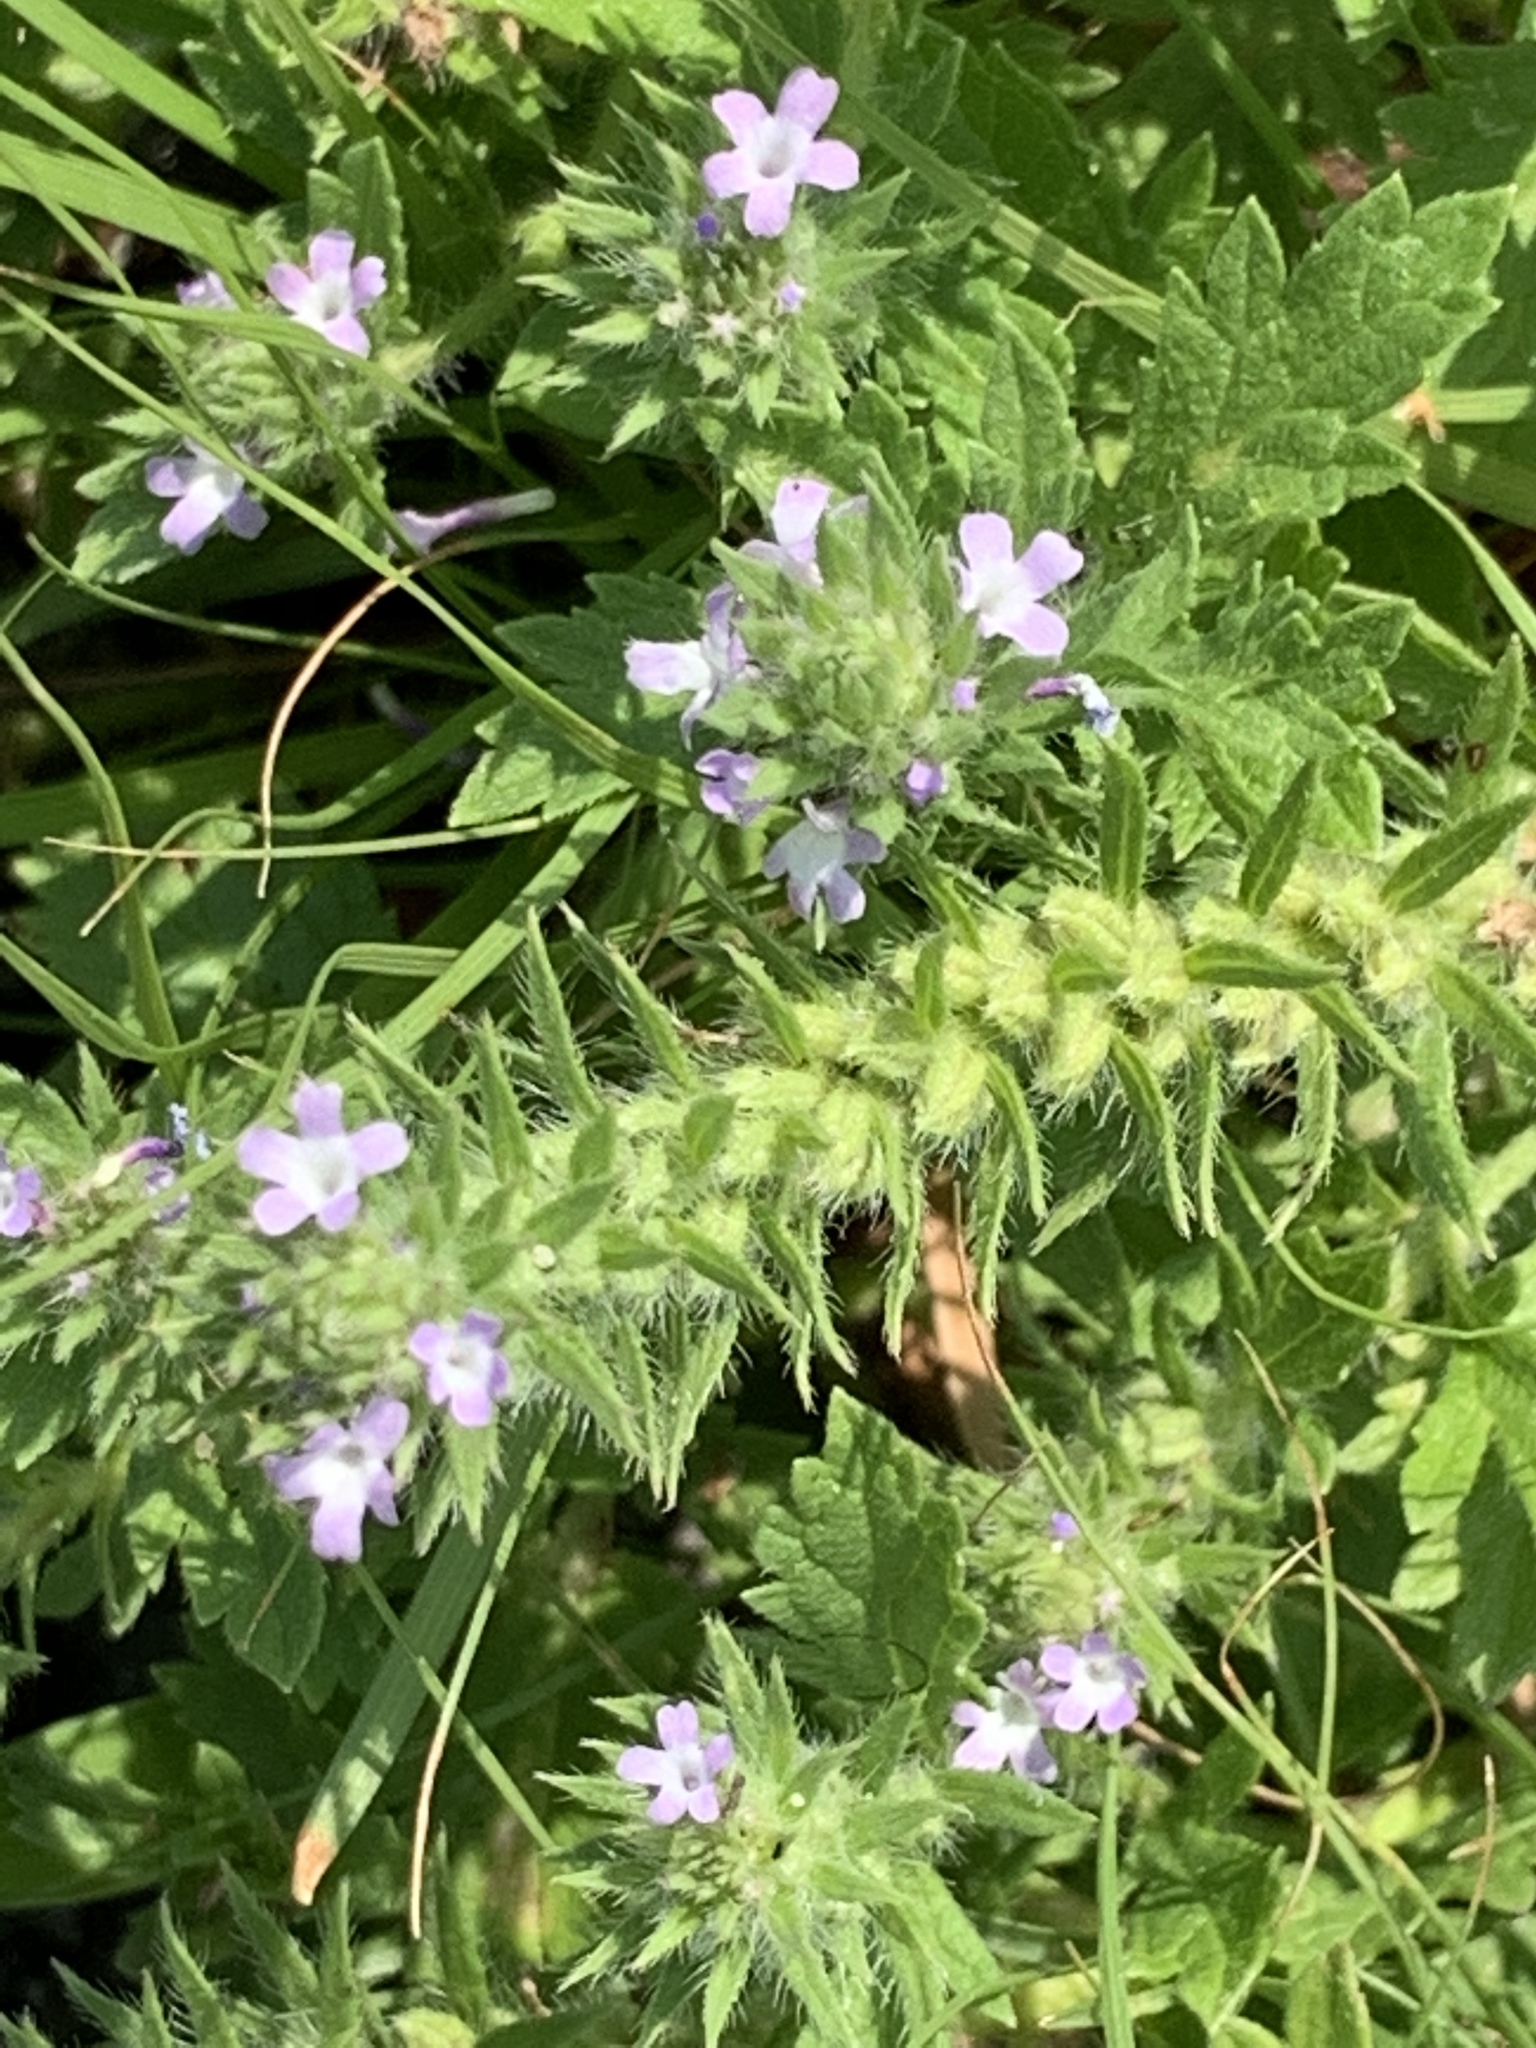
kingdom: Plantae
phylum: Tracheophyta
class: Magnoliopsida
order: Lamiales
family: Verbenaceae
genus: Verbena
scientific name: Verbena bracteata
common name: Bracted vervain
